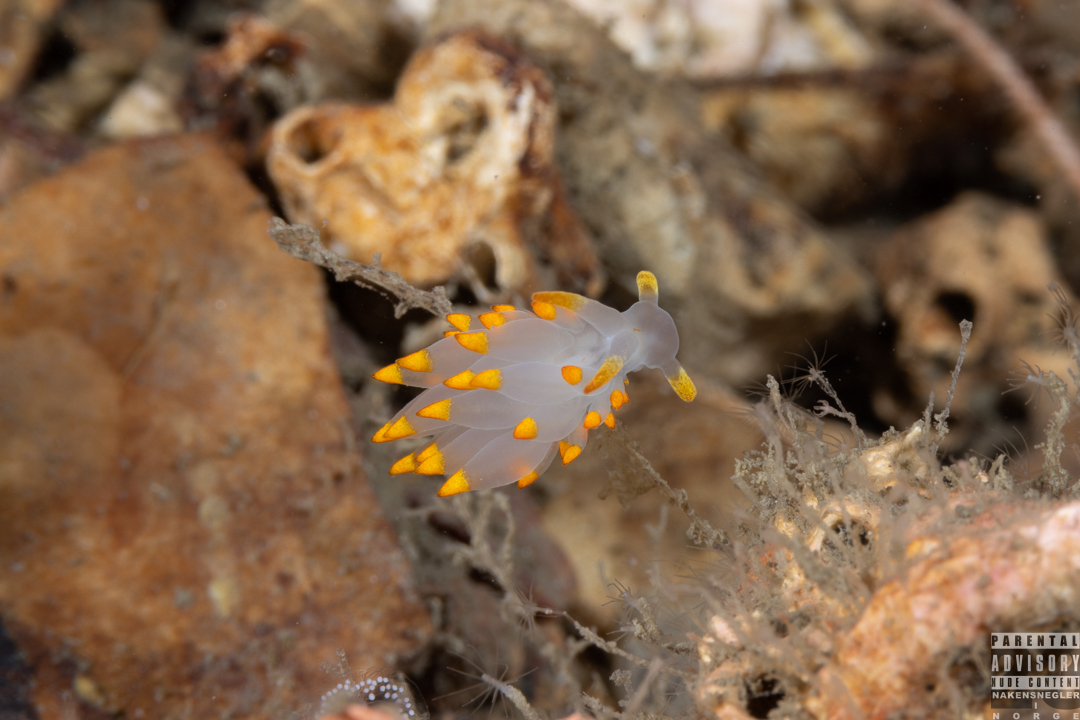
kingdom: Animalia
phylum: Mollusca
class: Gastropoda
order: Nudibranchia
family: Eubranchidae
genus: Amphorina
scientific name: Amphorina farrani
